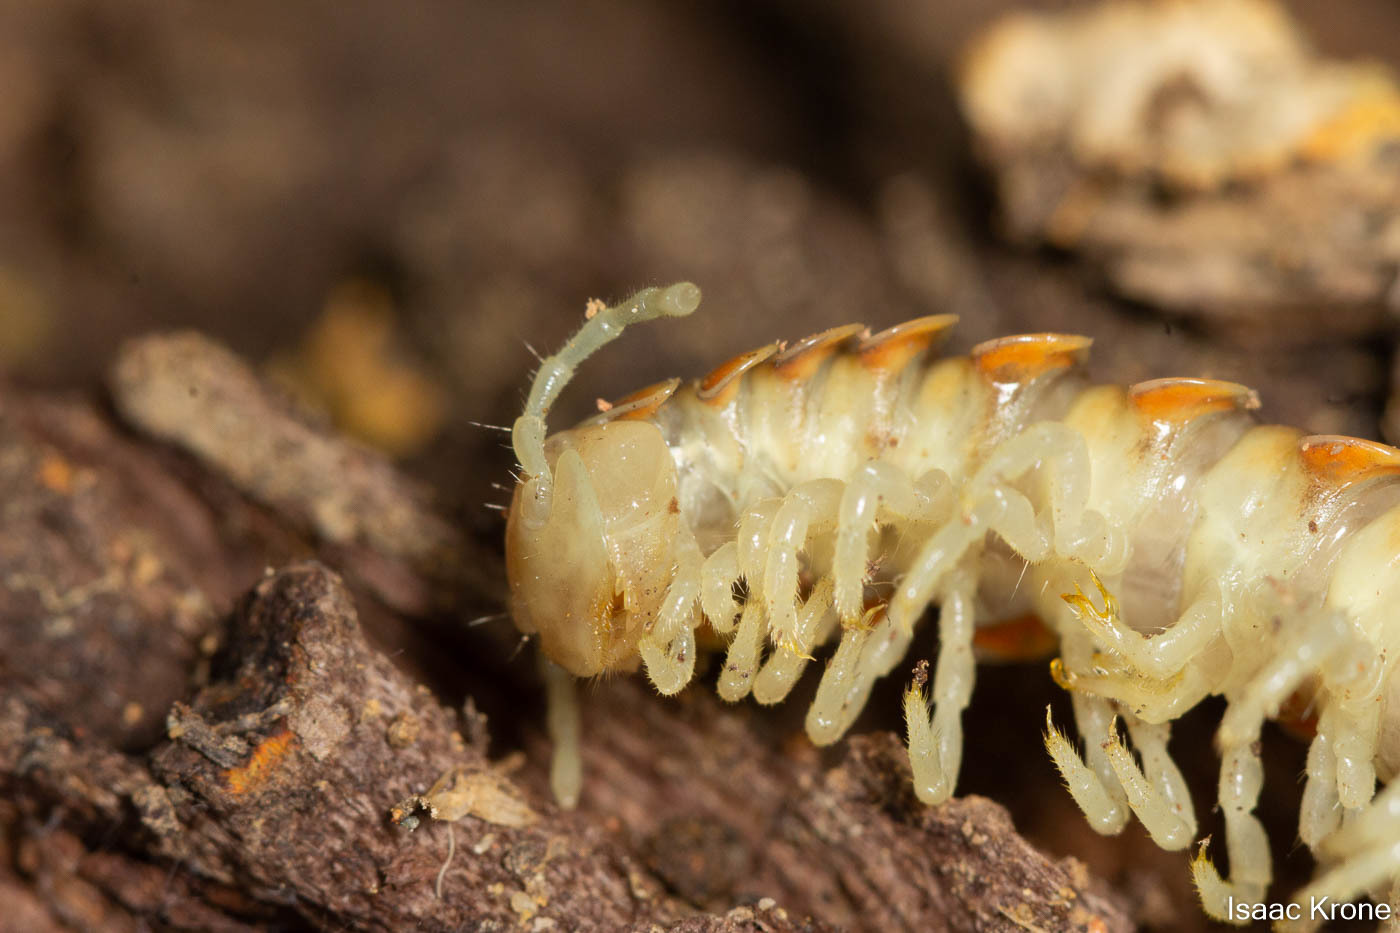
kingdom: Animalia
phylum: Arthropoda
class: Diplopoda
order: Polydesmida
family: Xystodesmidae
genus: Xystocheir
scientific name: Xystocheir dissecta
